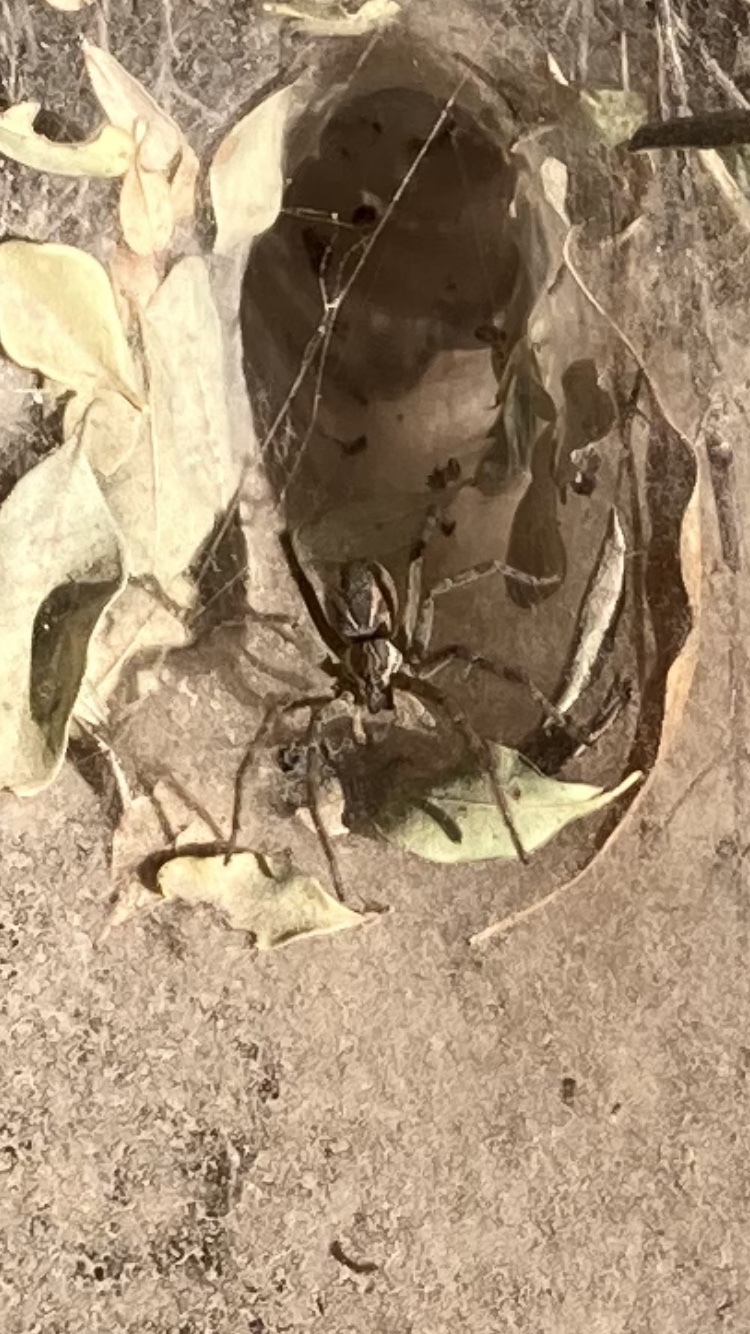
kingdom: Animalia
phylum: Arthropoda
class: Arachnida
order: Araneae
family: Lycosidae
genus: Aglaoctenus
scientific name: Aglaoctenus lagotis
